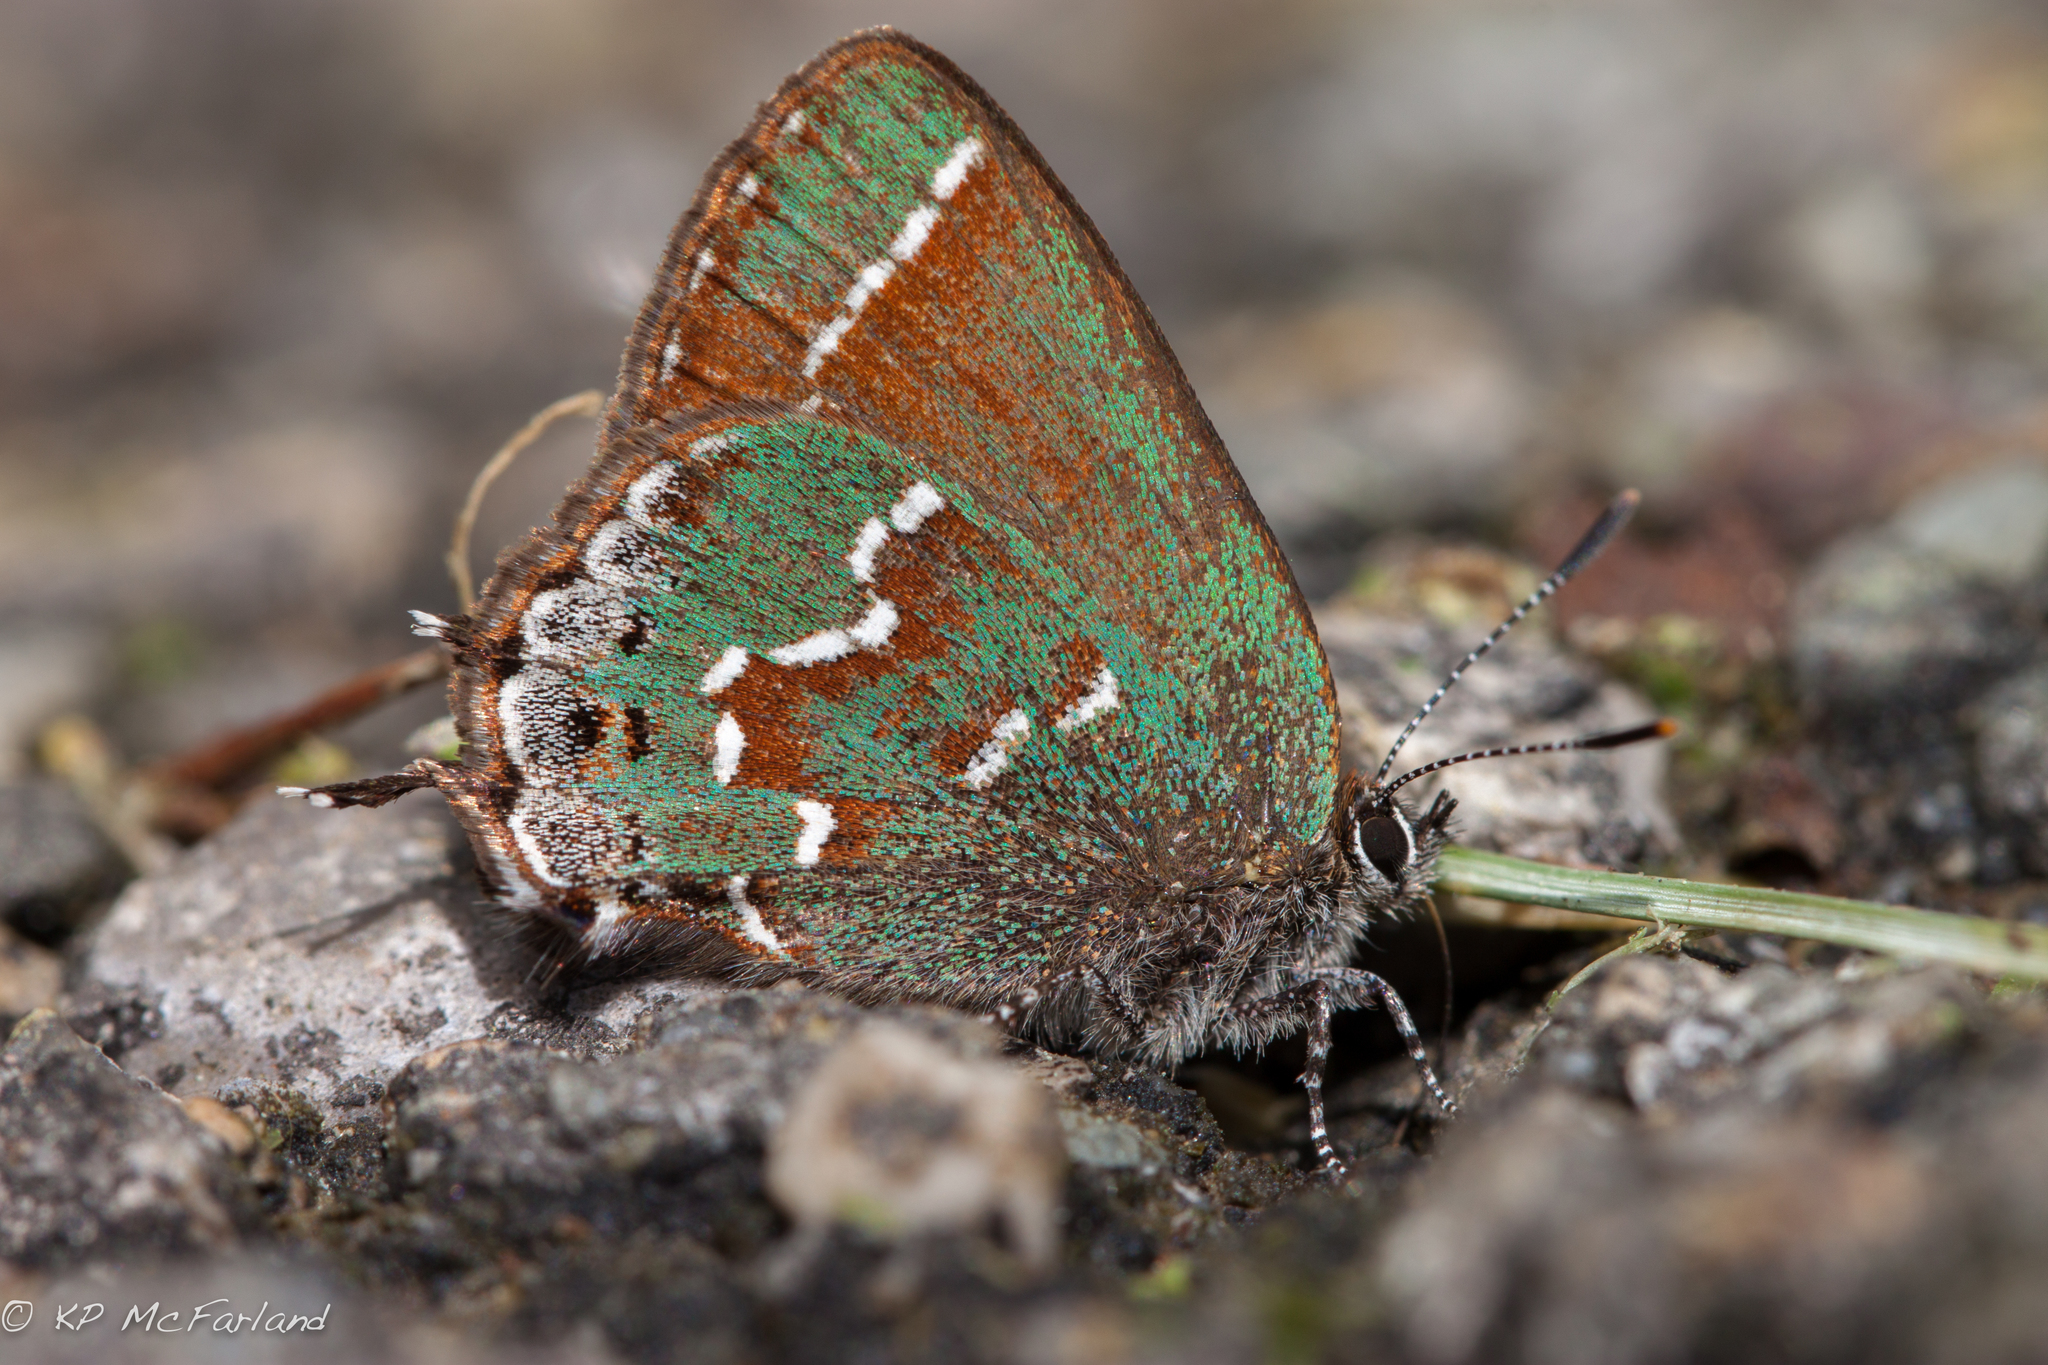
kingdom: Animalia
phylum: Arthropoda
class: Insecta
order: Lepidoptera
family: Lycaenidae
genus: Mitoura
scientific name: Mitoura gryneus
